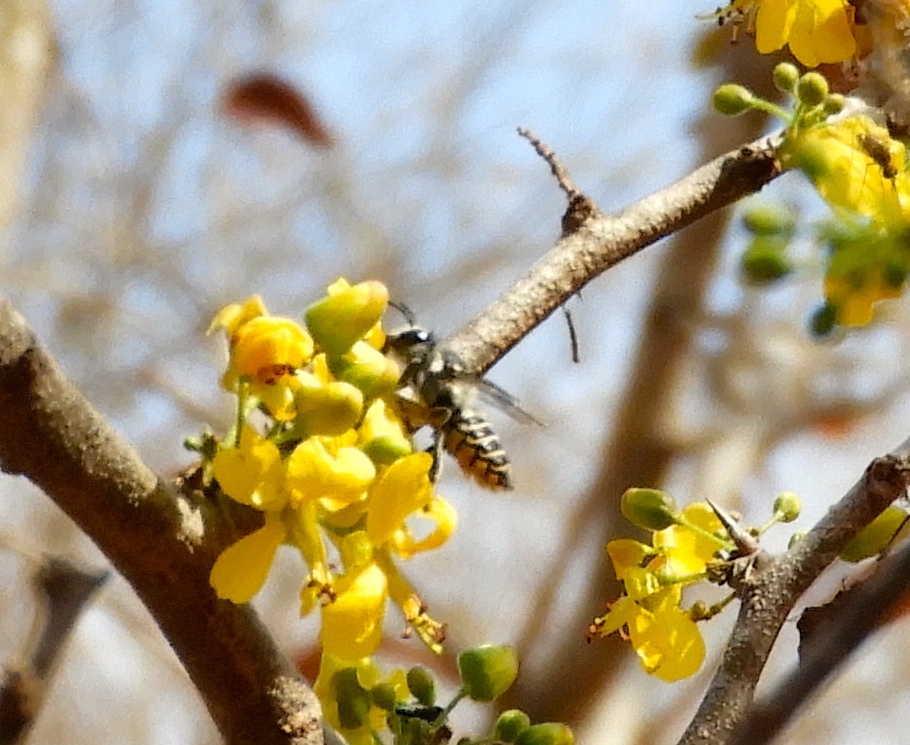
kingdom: Animalia
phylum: Arthropoda
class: Insecta
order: Hymenoptera
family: Megachilidae
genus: Megachile
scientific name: Megachile
